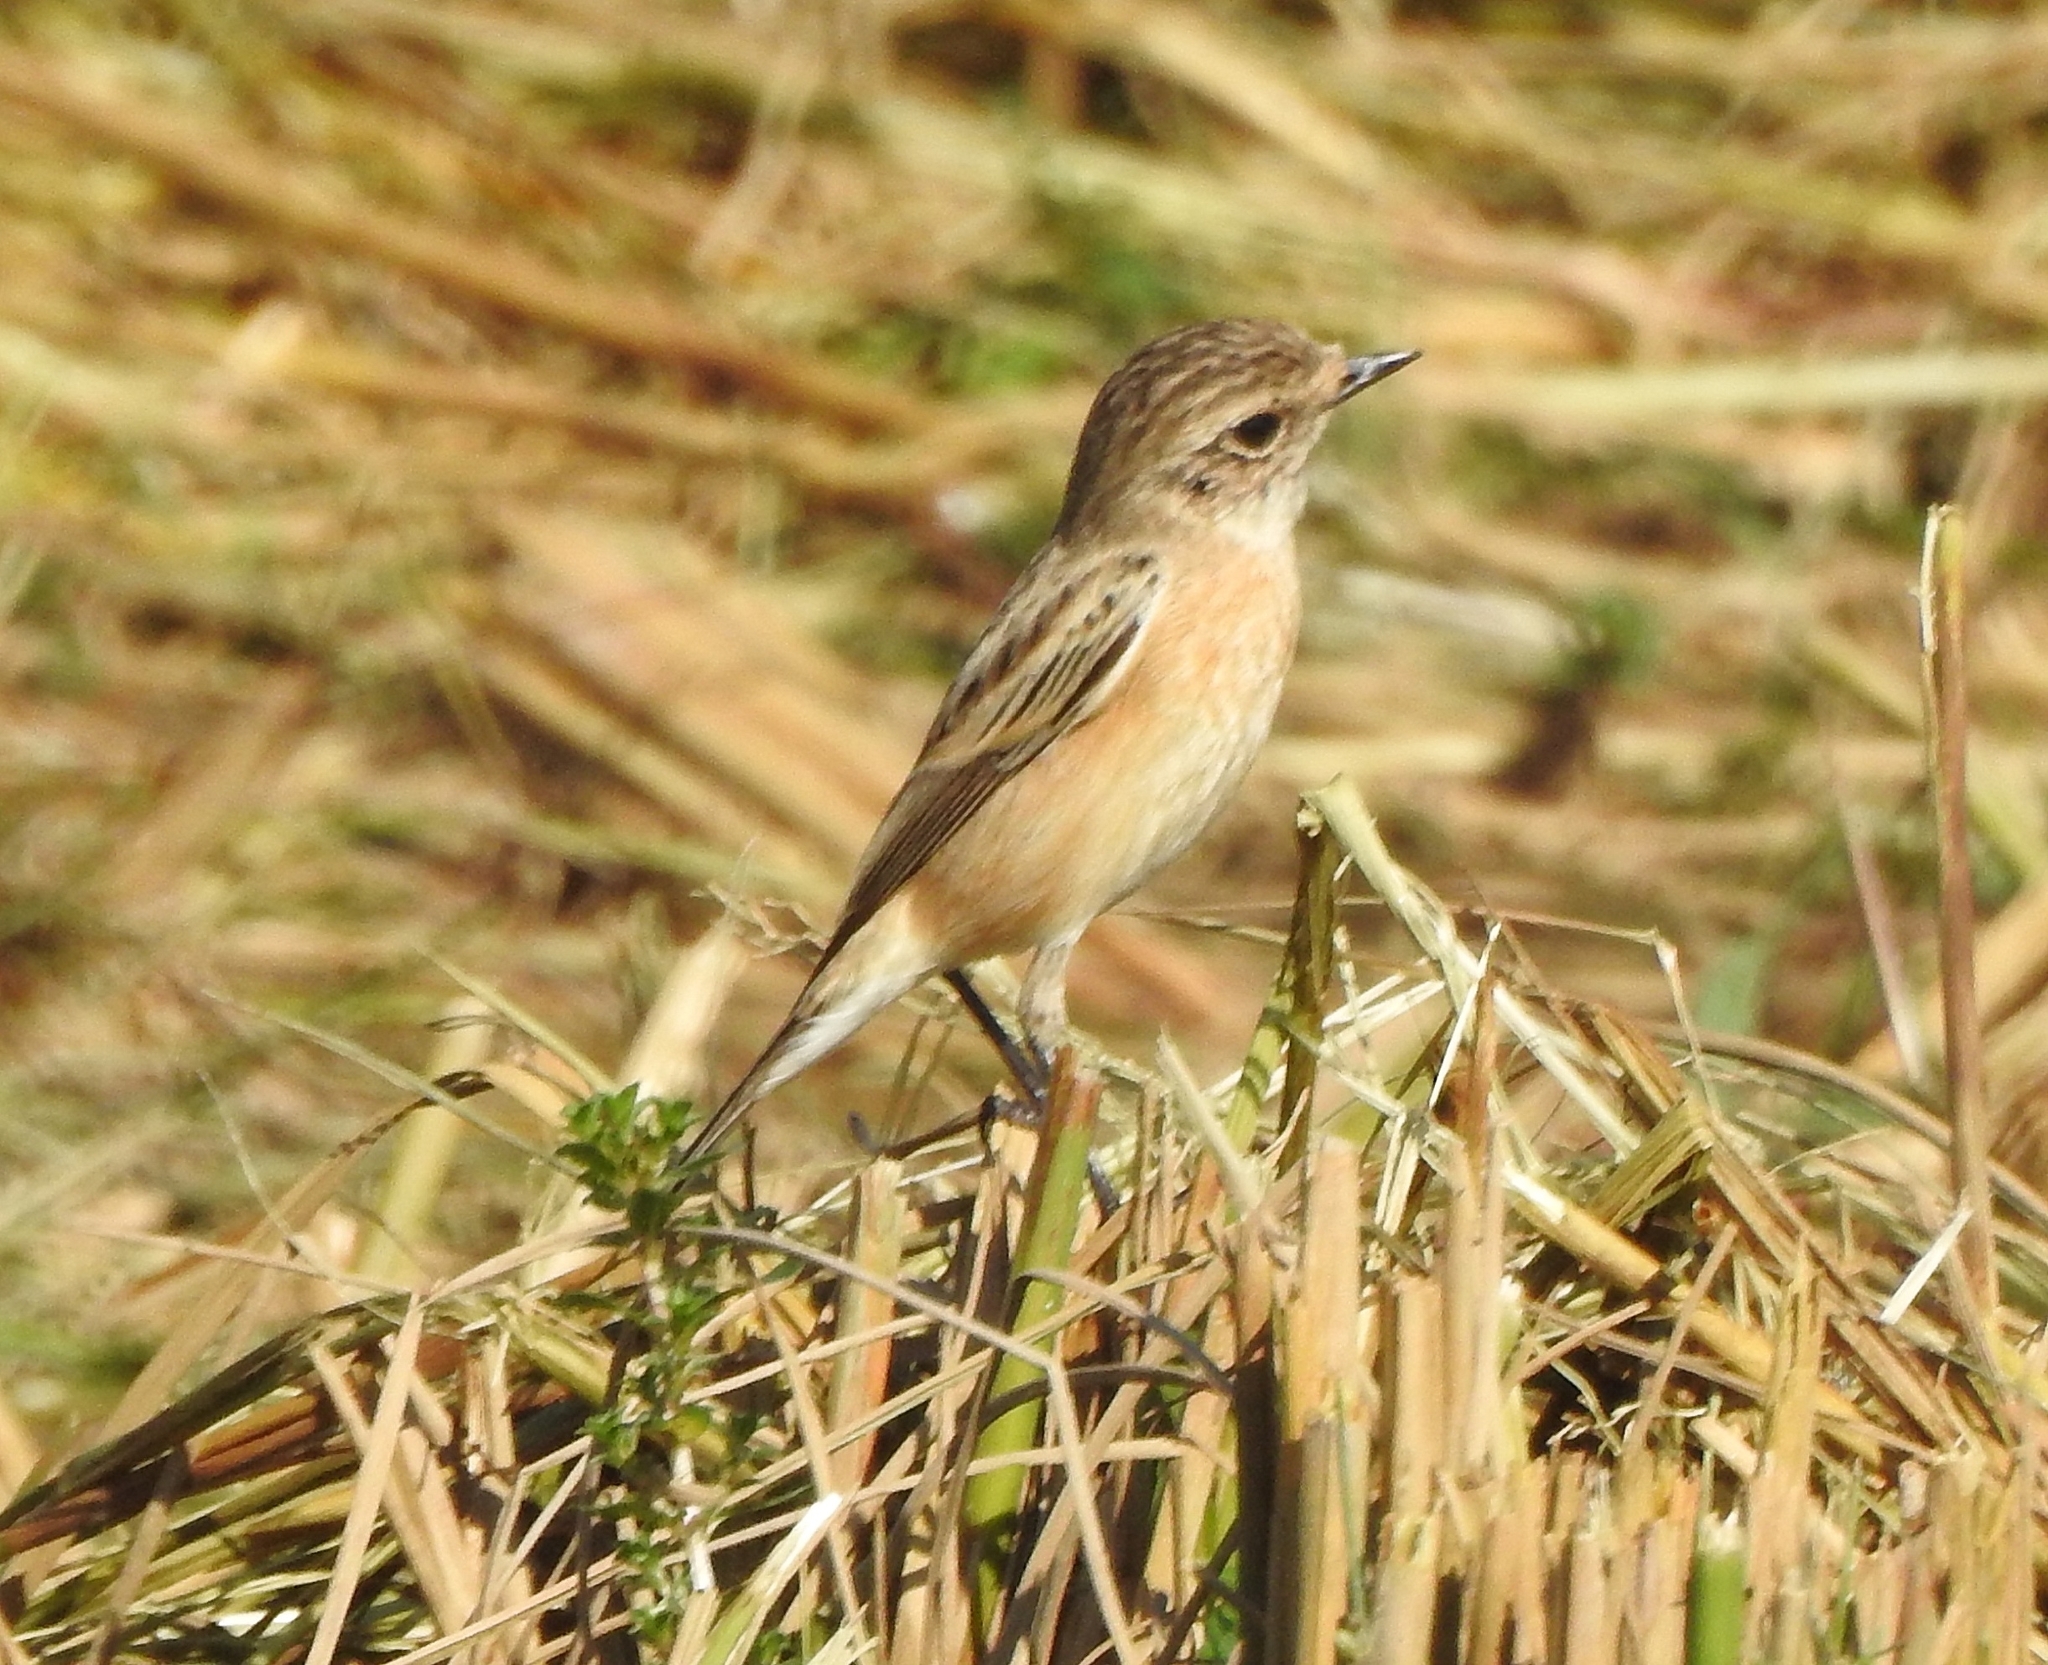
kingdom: Animalia
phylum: Chordata
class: Aves
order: Passeriformes
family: Muscicapidae
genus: Saxicola
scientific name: Saxicola maurus
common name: Siberian stonechat
